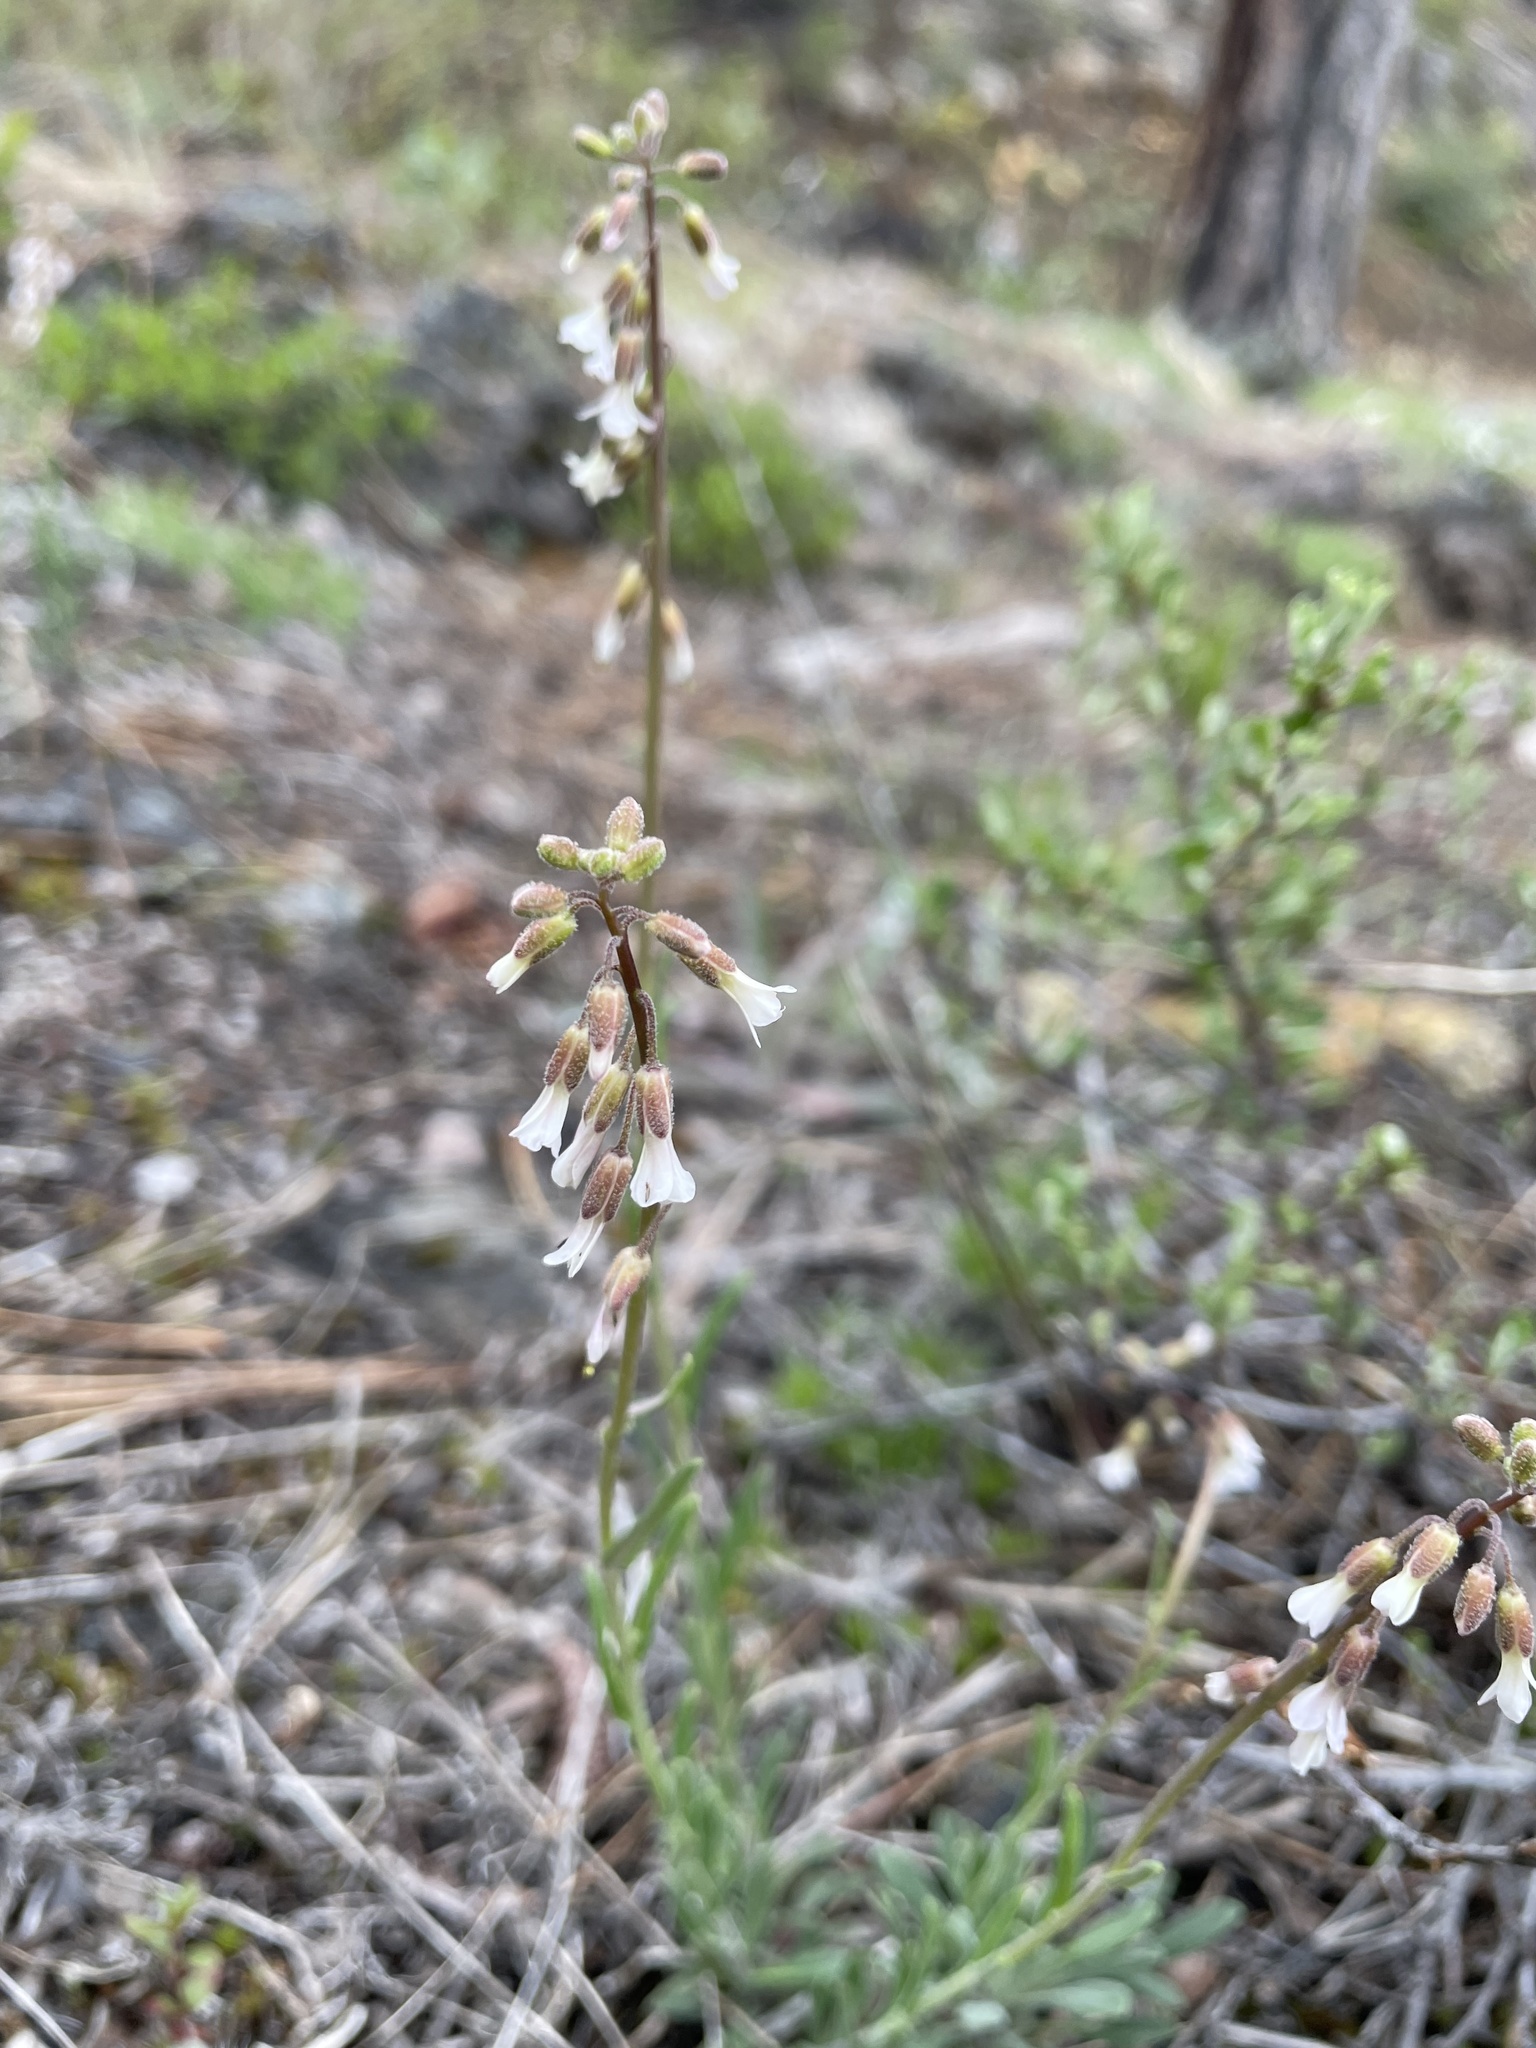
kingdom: Plantae
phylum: Tracheophyta
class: Magnoliopsida
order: Brassicales
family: Brassicaceae
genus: Boechera
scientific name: Boechera retrofracta
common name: Dangling suncress
